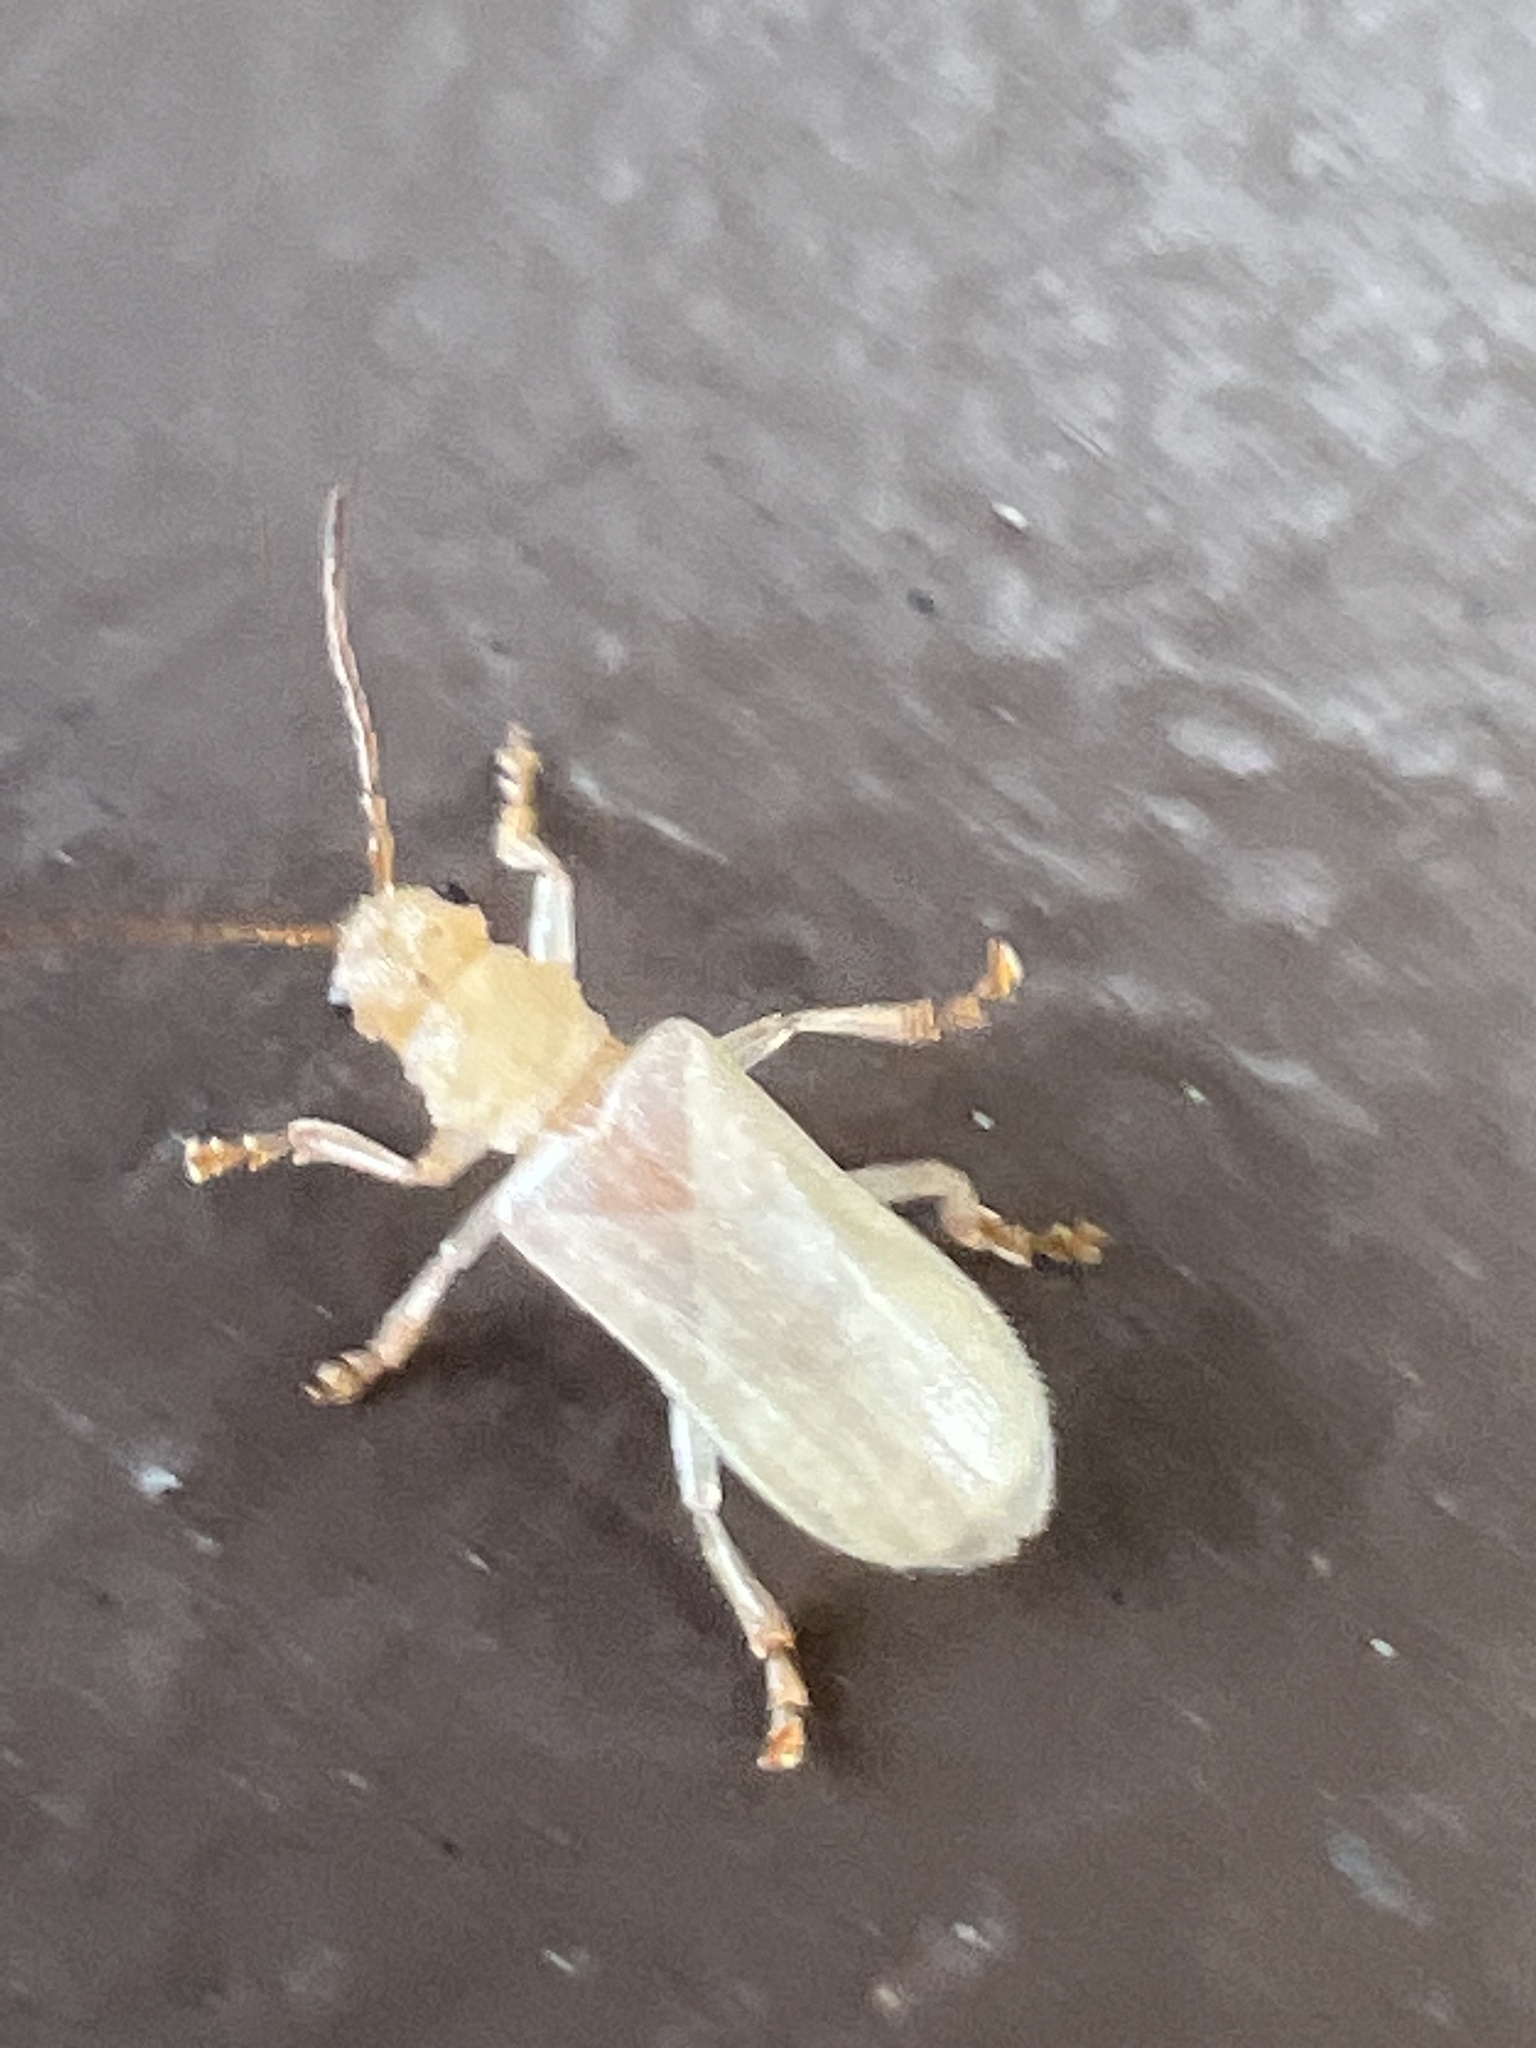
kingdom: Animalia
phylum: Arthropoda
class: Insecta
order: Coleoptera
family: Chrysomelidae
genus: Syneta
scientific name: Syneta albida
